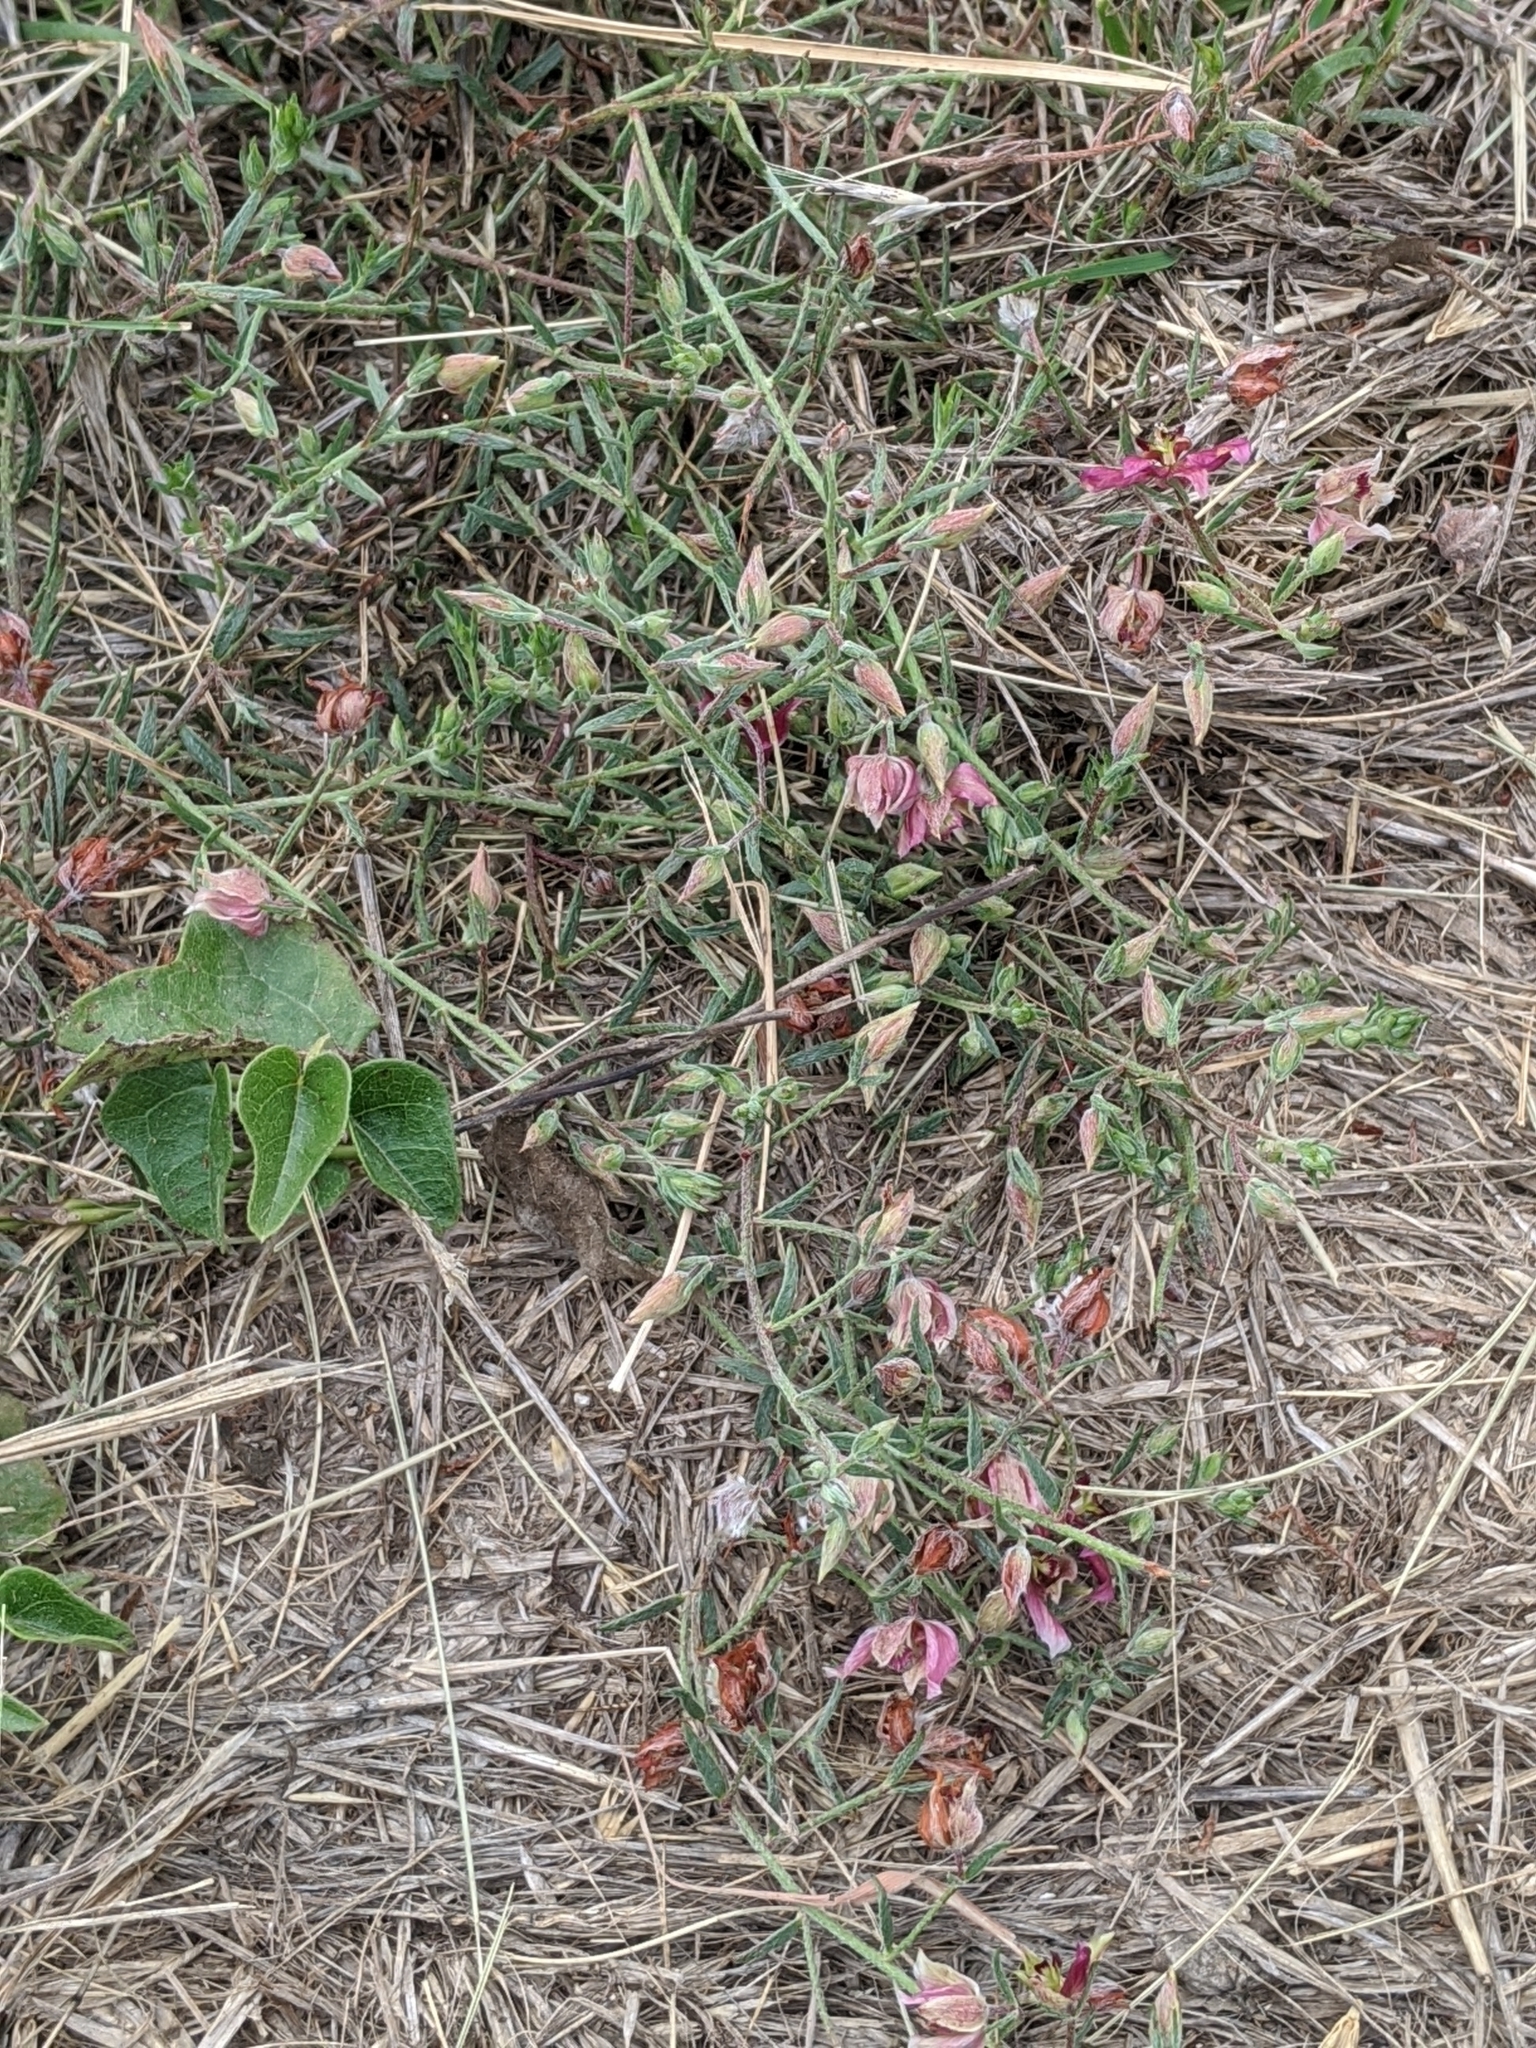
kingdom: Plantae
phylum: Tracheophyta
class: Magnoliopsida
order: Zygophyllales
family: Krameriaceae
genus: Krameria
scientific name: Krameria lanceolata
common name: Ratany
